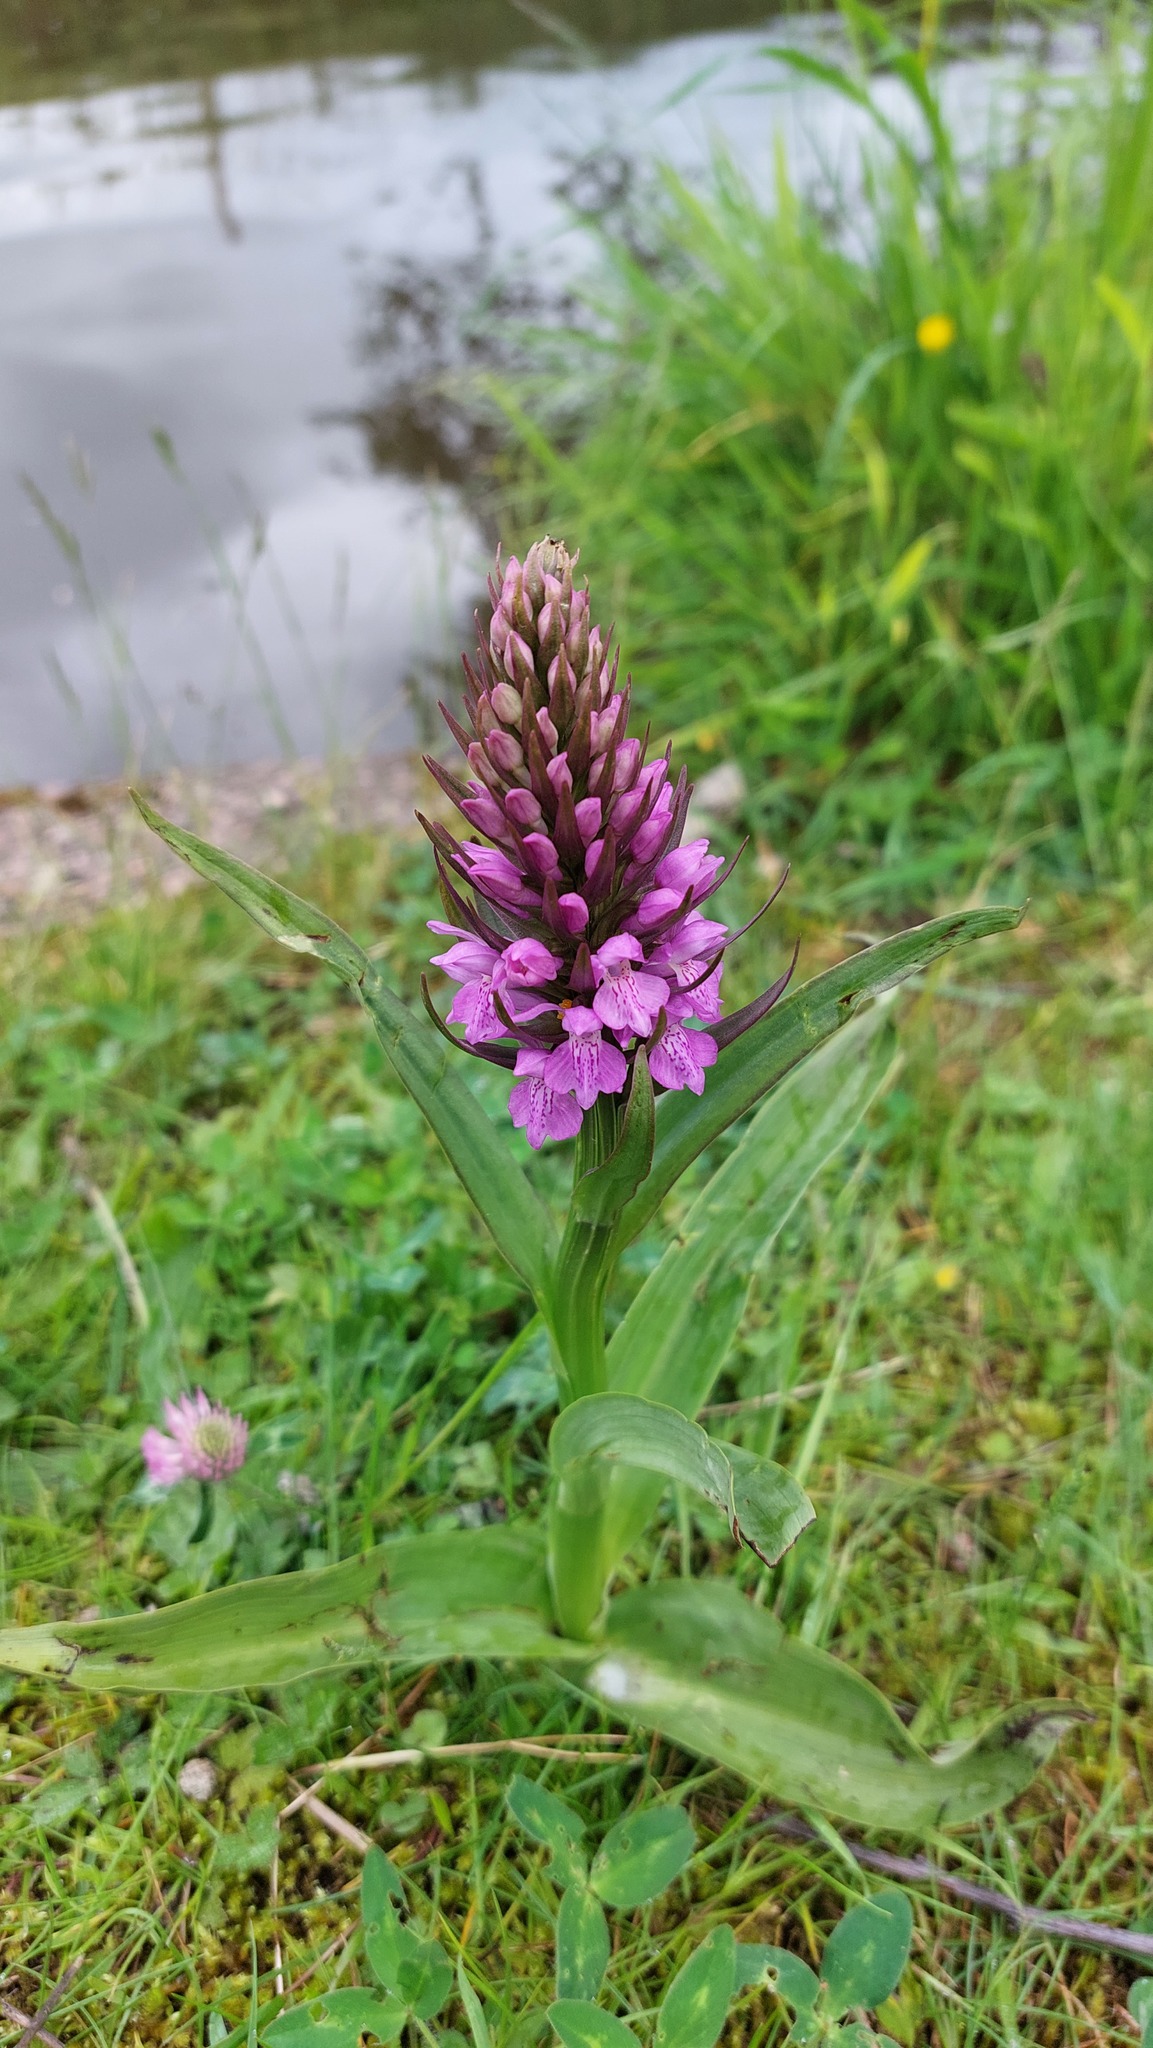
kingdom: Plantae
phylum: Tracheophyta
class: Liliopsida
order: Asparagales
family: Orchidaceae
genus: Dactylorhiza
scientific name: Dactylorhiza majalis
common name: Marsh orchid
